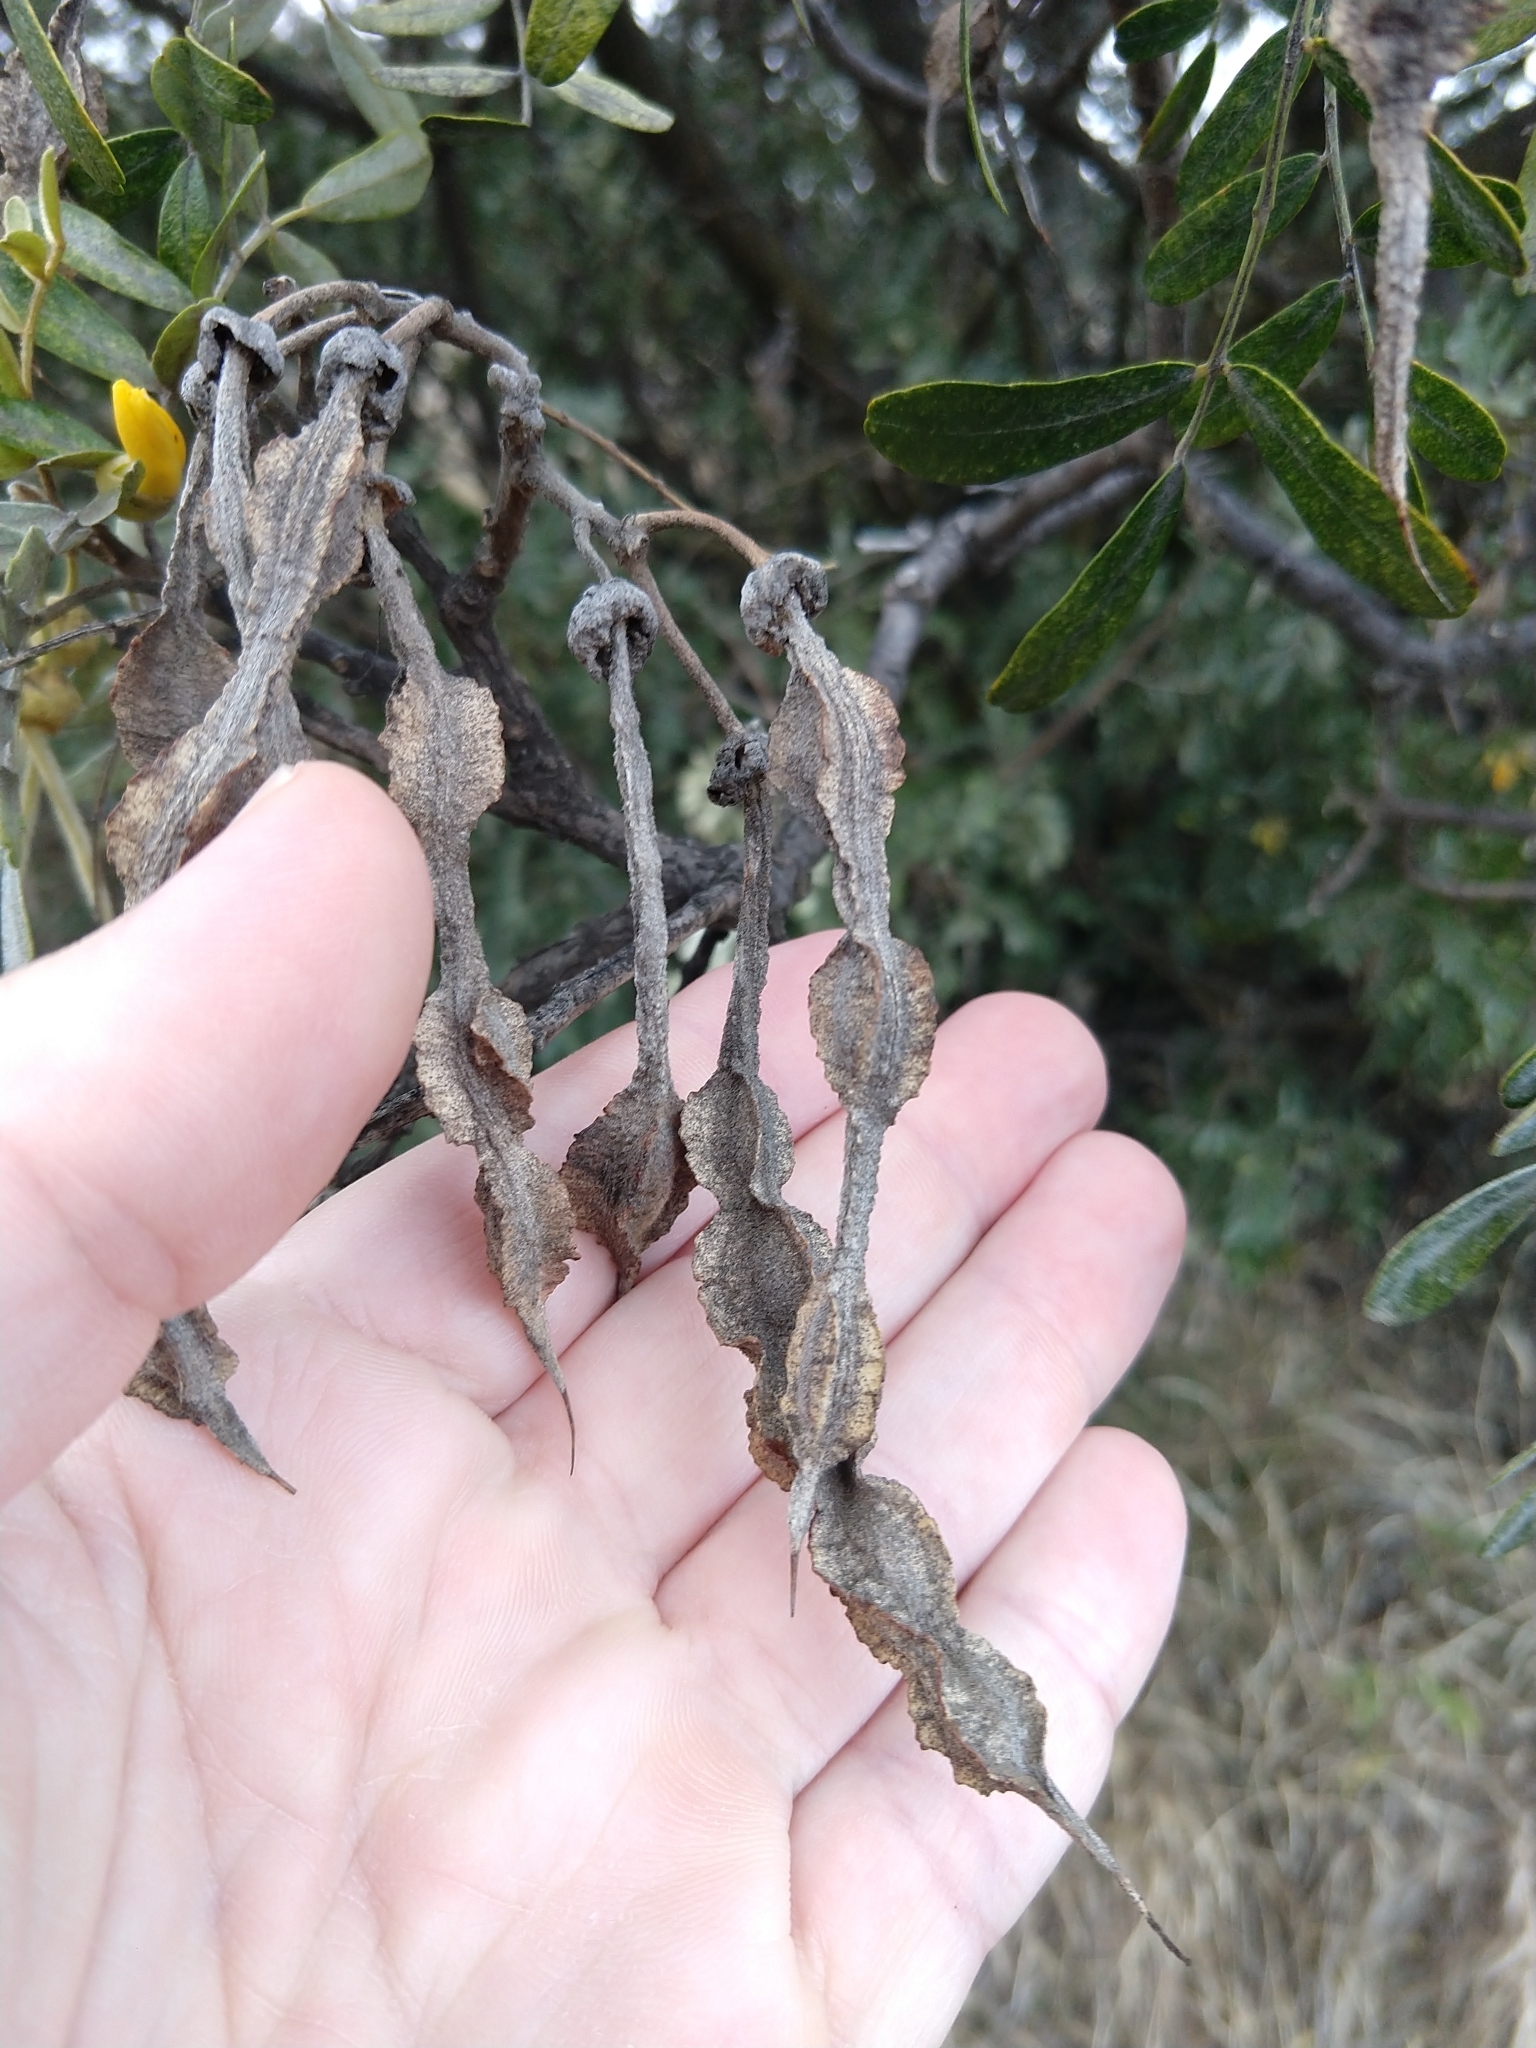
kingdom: Plantae
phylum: Tracheophyta
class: Magnoliopsida
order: Fabales
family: Fabaceae
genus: Sophora
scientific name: Sophora chrysophylla
